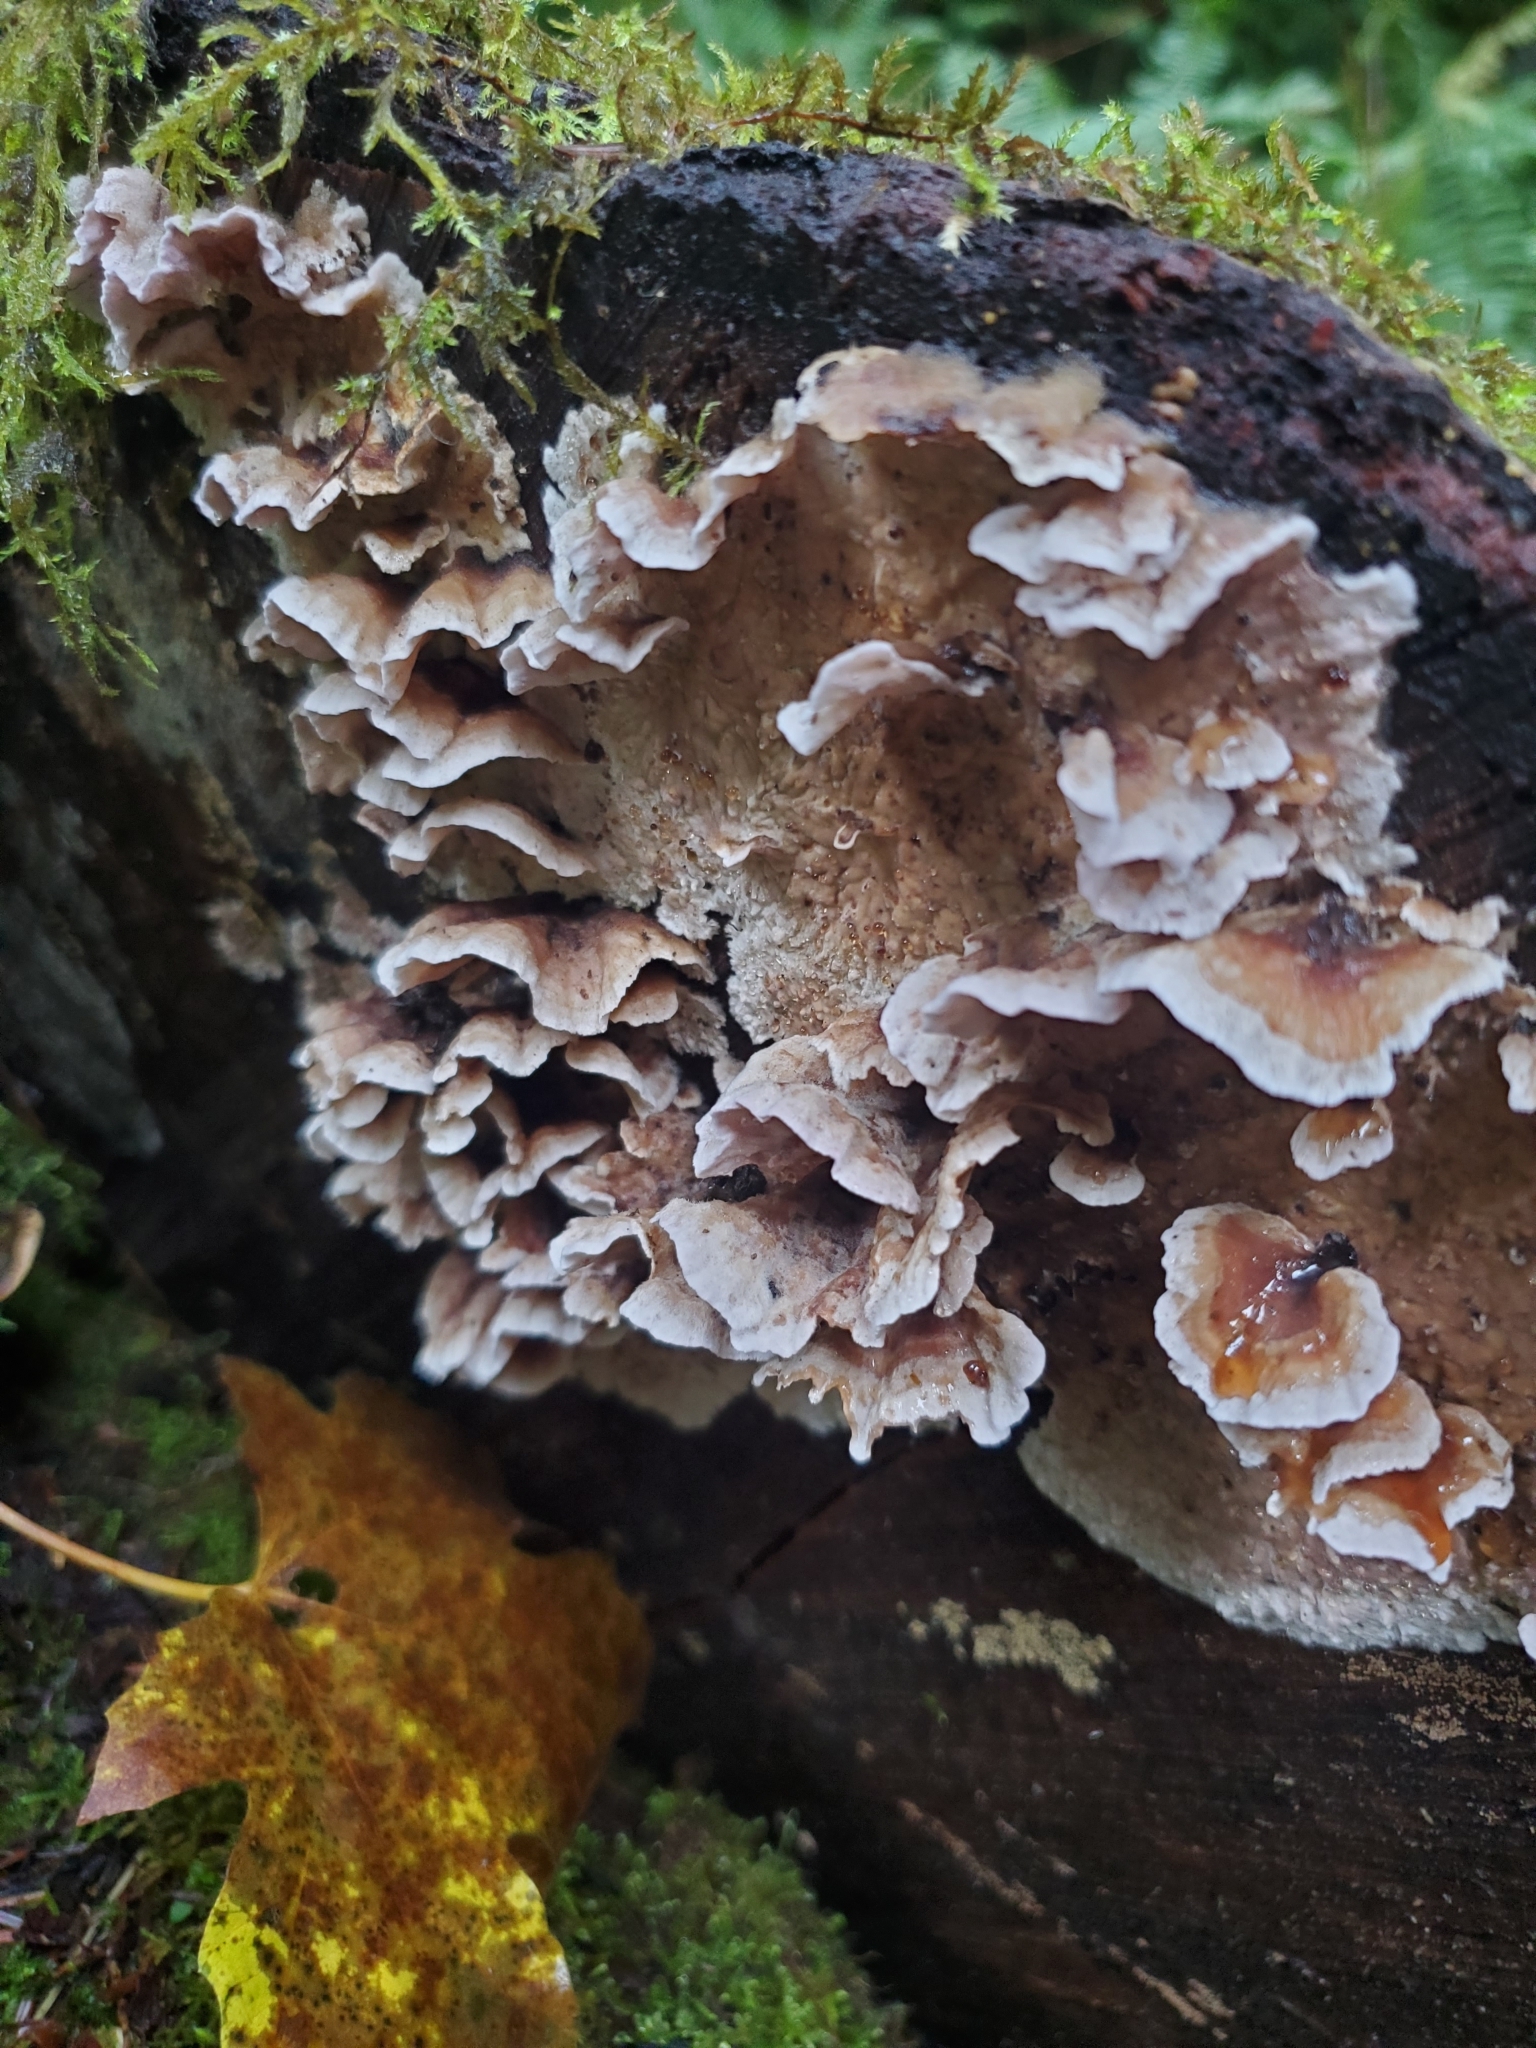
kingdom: Fungi
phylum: Basidiomycota
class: Agaricomycetes
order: Polyporales
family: Meruliaceae
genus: Phlebia
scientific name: Phlebia tremellosa
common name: Jelly rot
